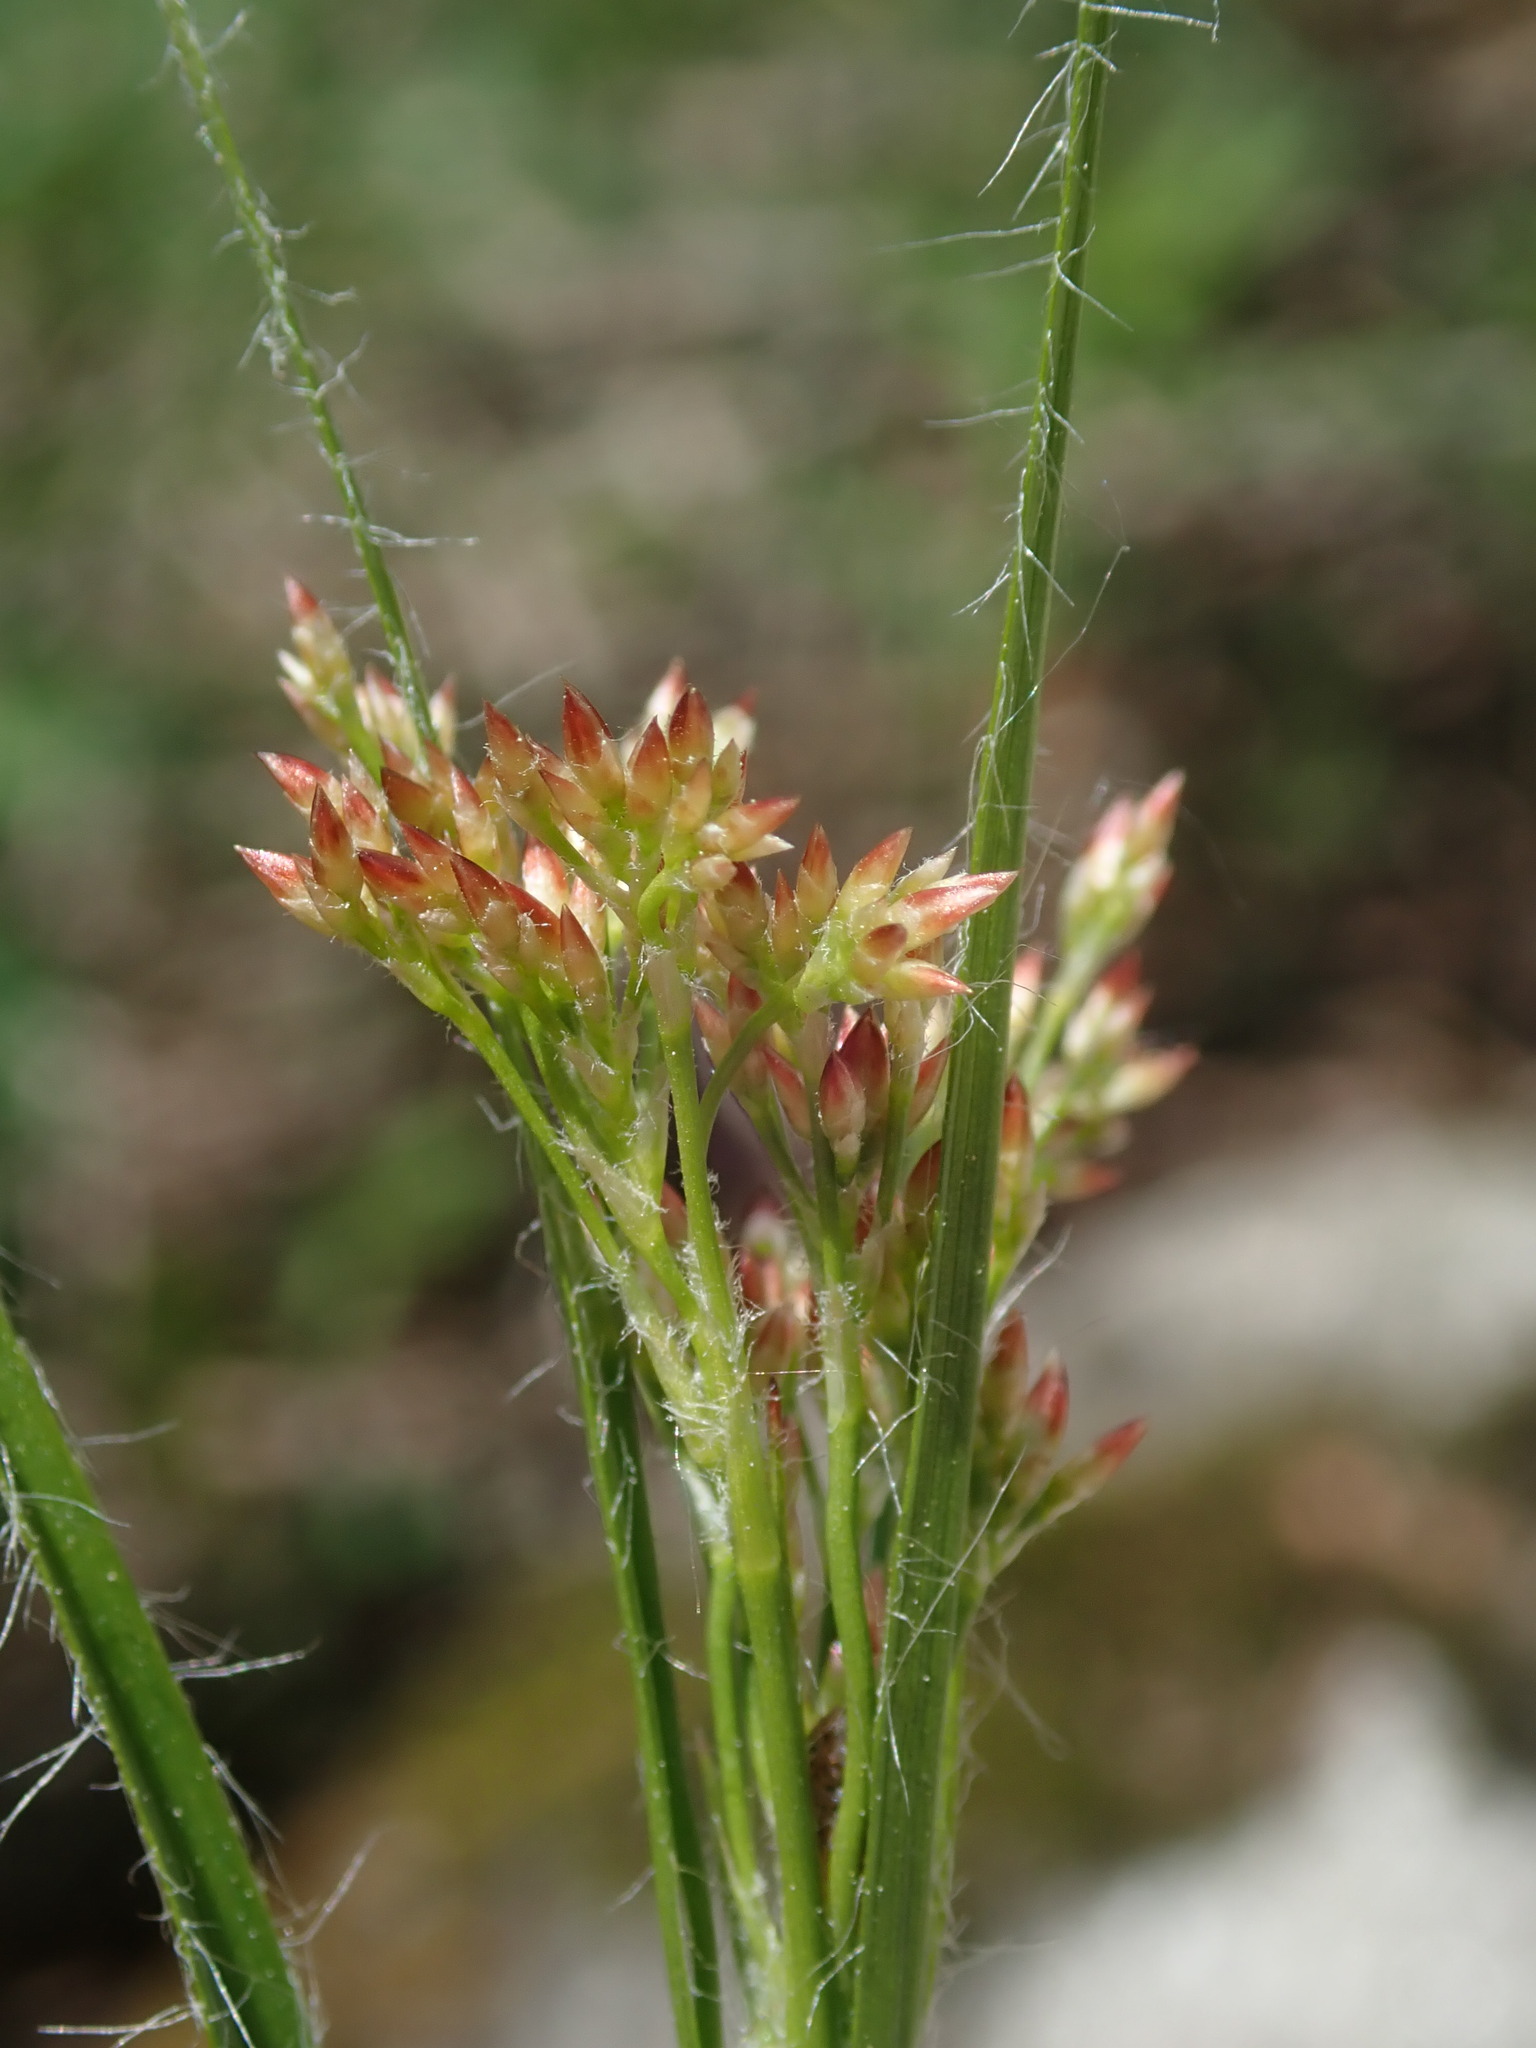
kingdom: Plantae
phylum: Tracheophyta
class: Liliopsida
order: Poales
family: Juncaceae
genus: Luzula
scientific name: Luzula luzuloides
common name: White wood-rush
